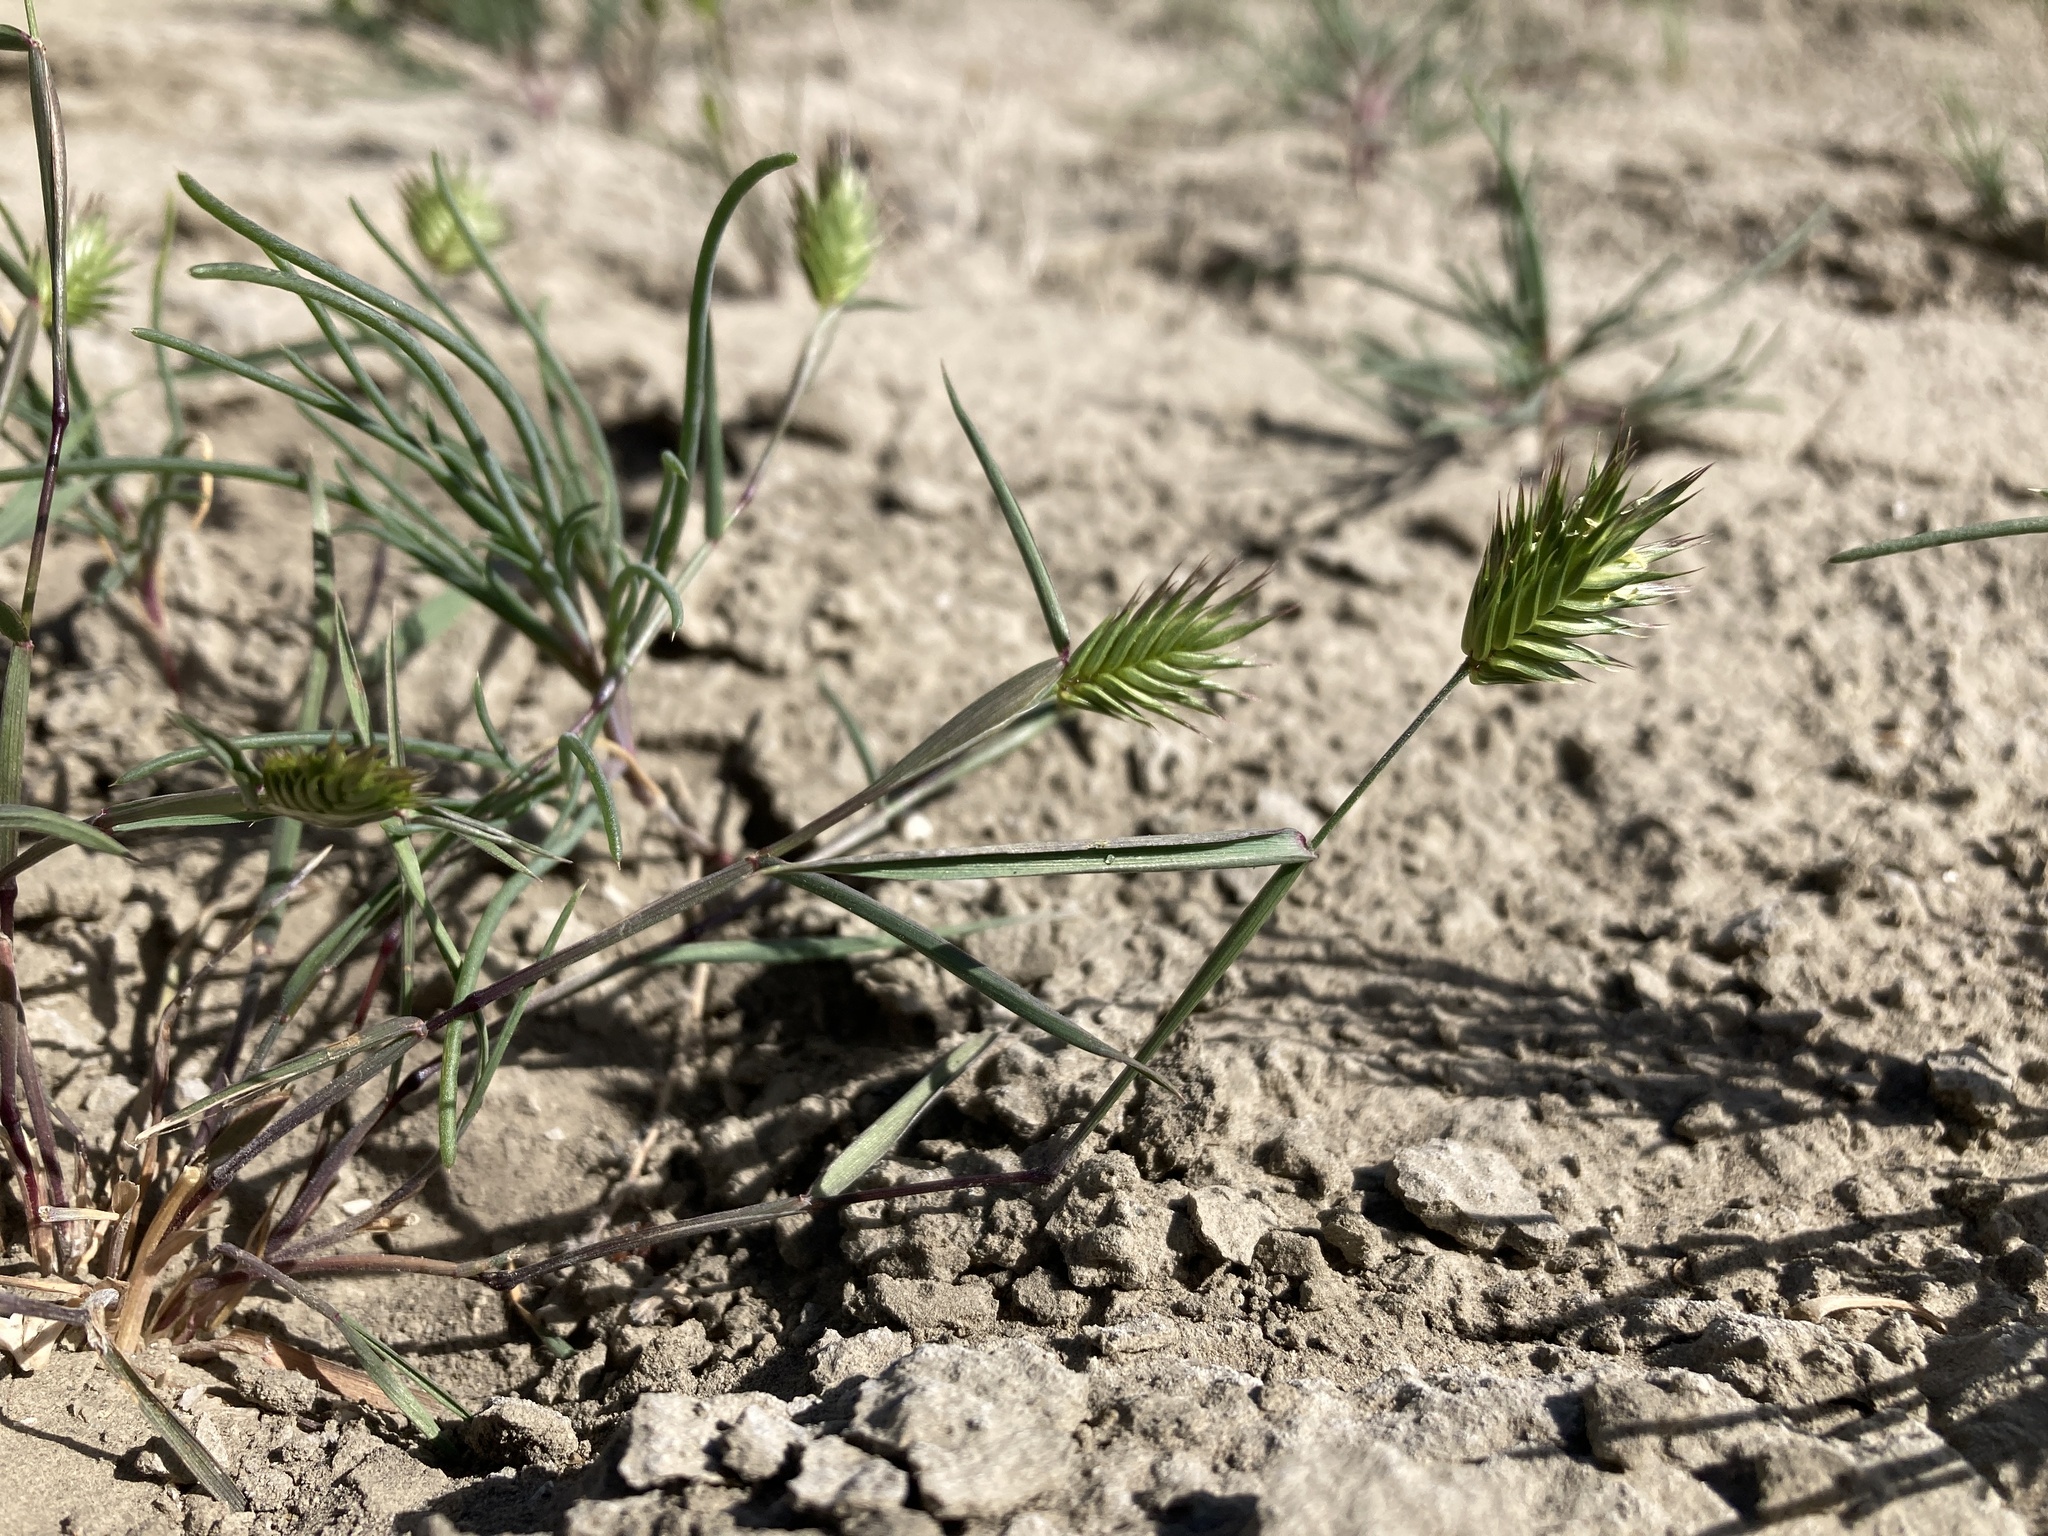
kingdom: Plantae
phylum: Tracheophyta
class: Liliopsida
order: Poales
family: Poaceae
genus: Eremopyrum
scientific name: Eremopyrum triticeum
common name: Annual wheatgrass
